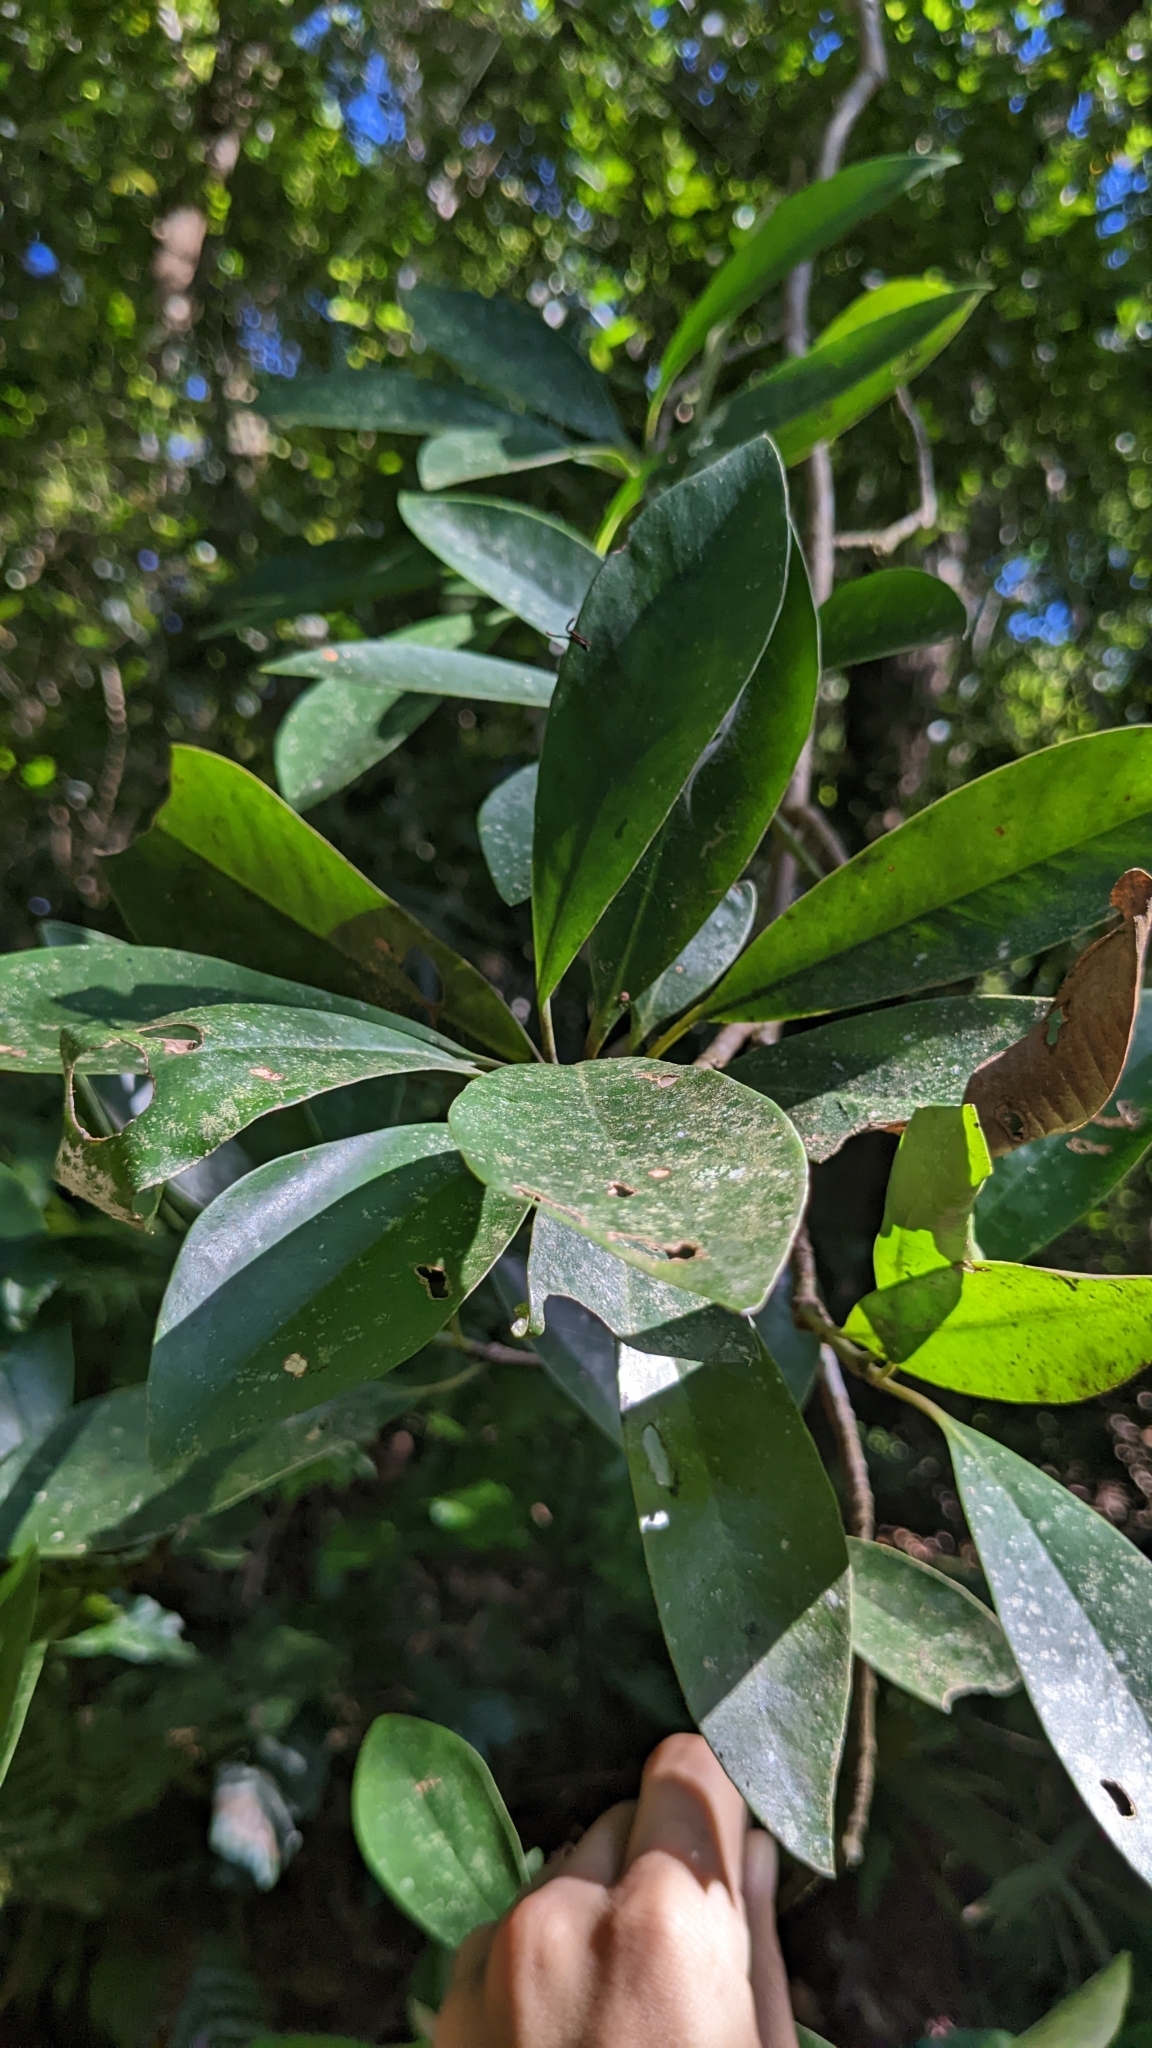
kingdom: Plantae
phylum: Tracheophyta
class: Magnoliopsida
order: Gentianales
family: Gentianaceae
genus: Fagraea
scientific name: Fagraea ceilanica
